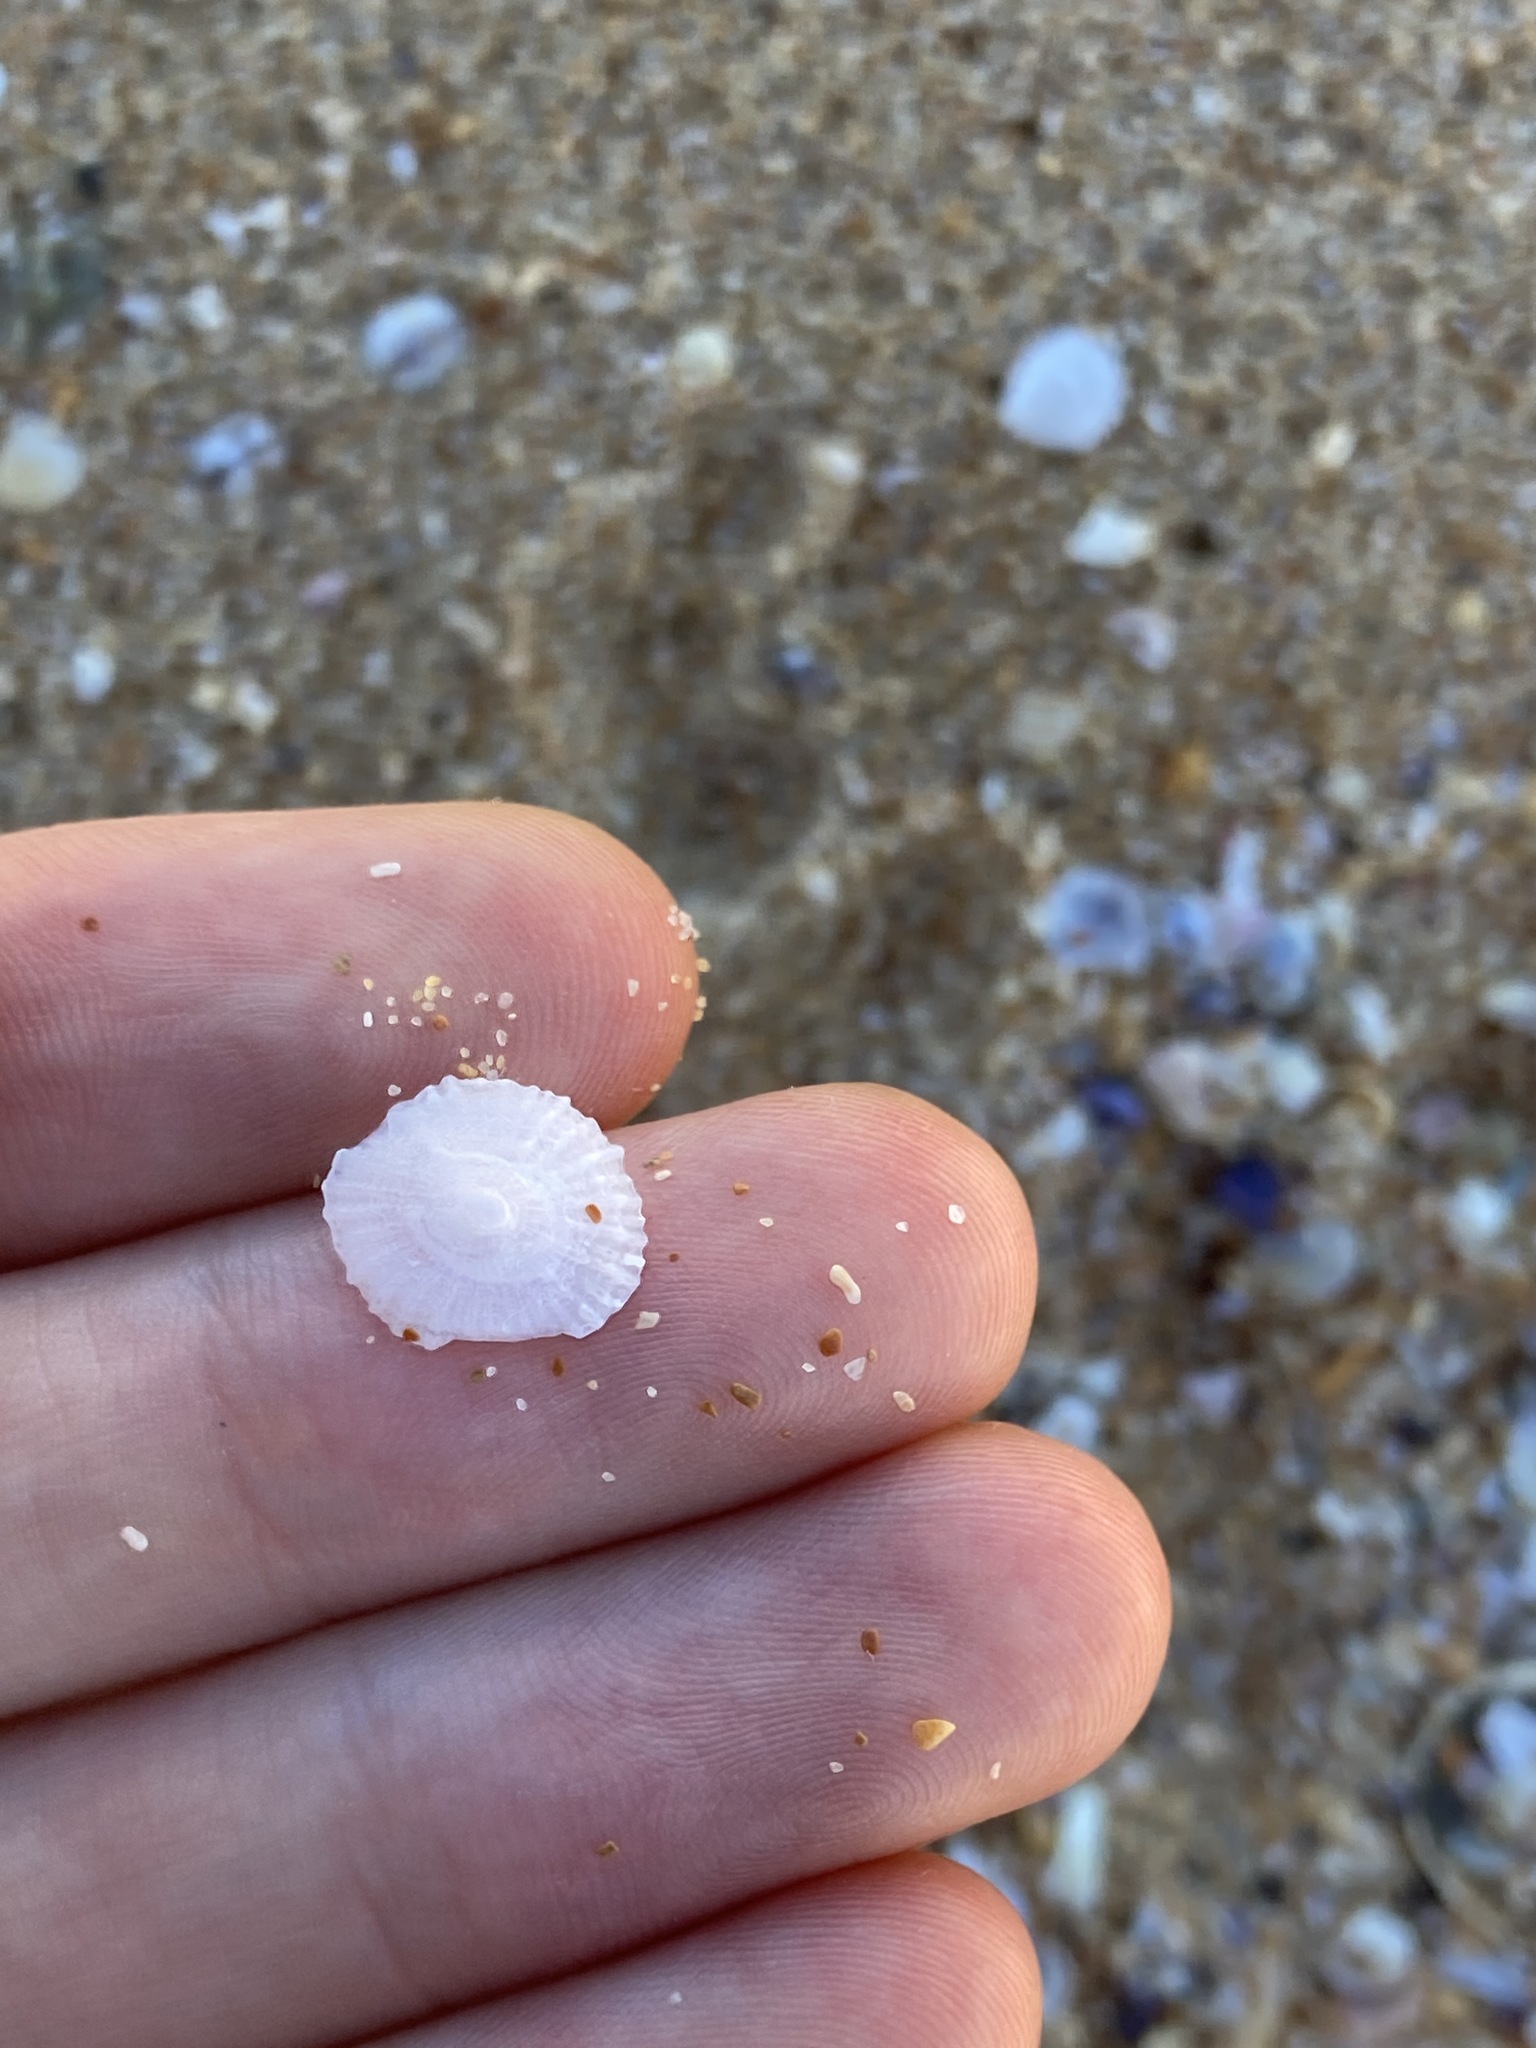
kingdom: Animalia
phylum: Mollusca
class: Gastropoda
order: Ellobiida
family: Trimusculidae
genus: Trimusculus
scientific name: Trimusculus conicus
